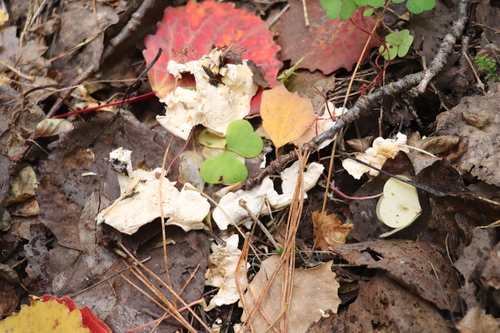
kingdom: Fungi
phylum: Basidiomycota
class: Agaricomycetes
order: Cantharellales
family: Hydnaceae
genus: Sistotrema
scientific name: Sistotrema confluens
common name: Aromatic earthfan
